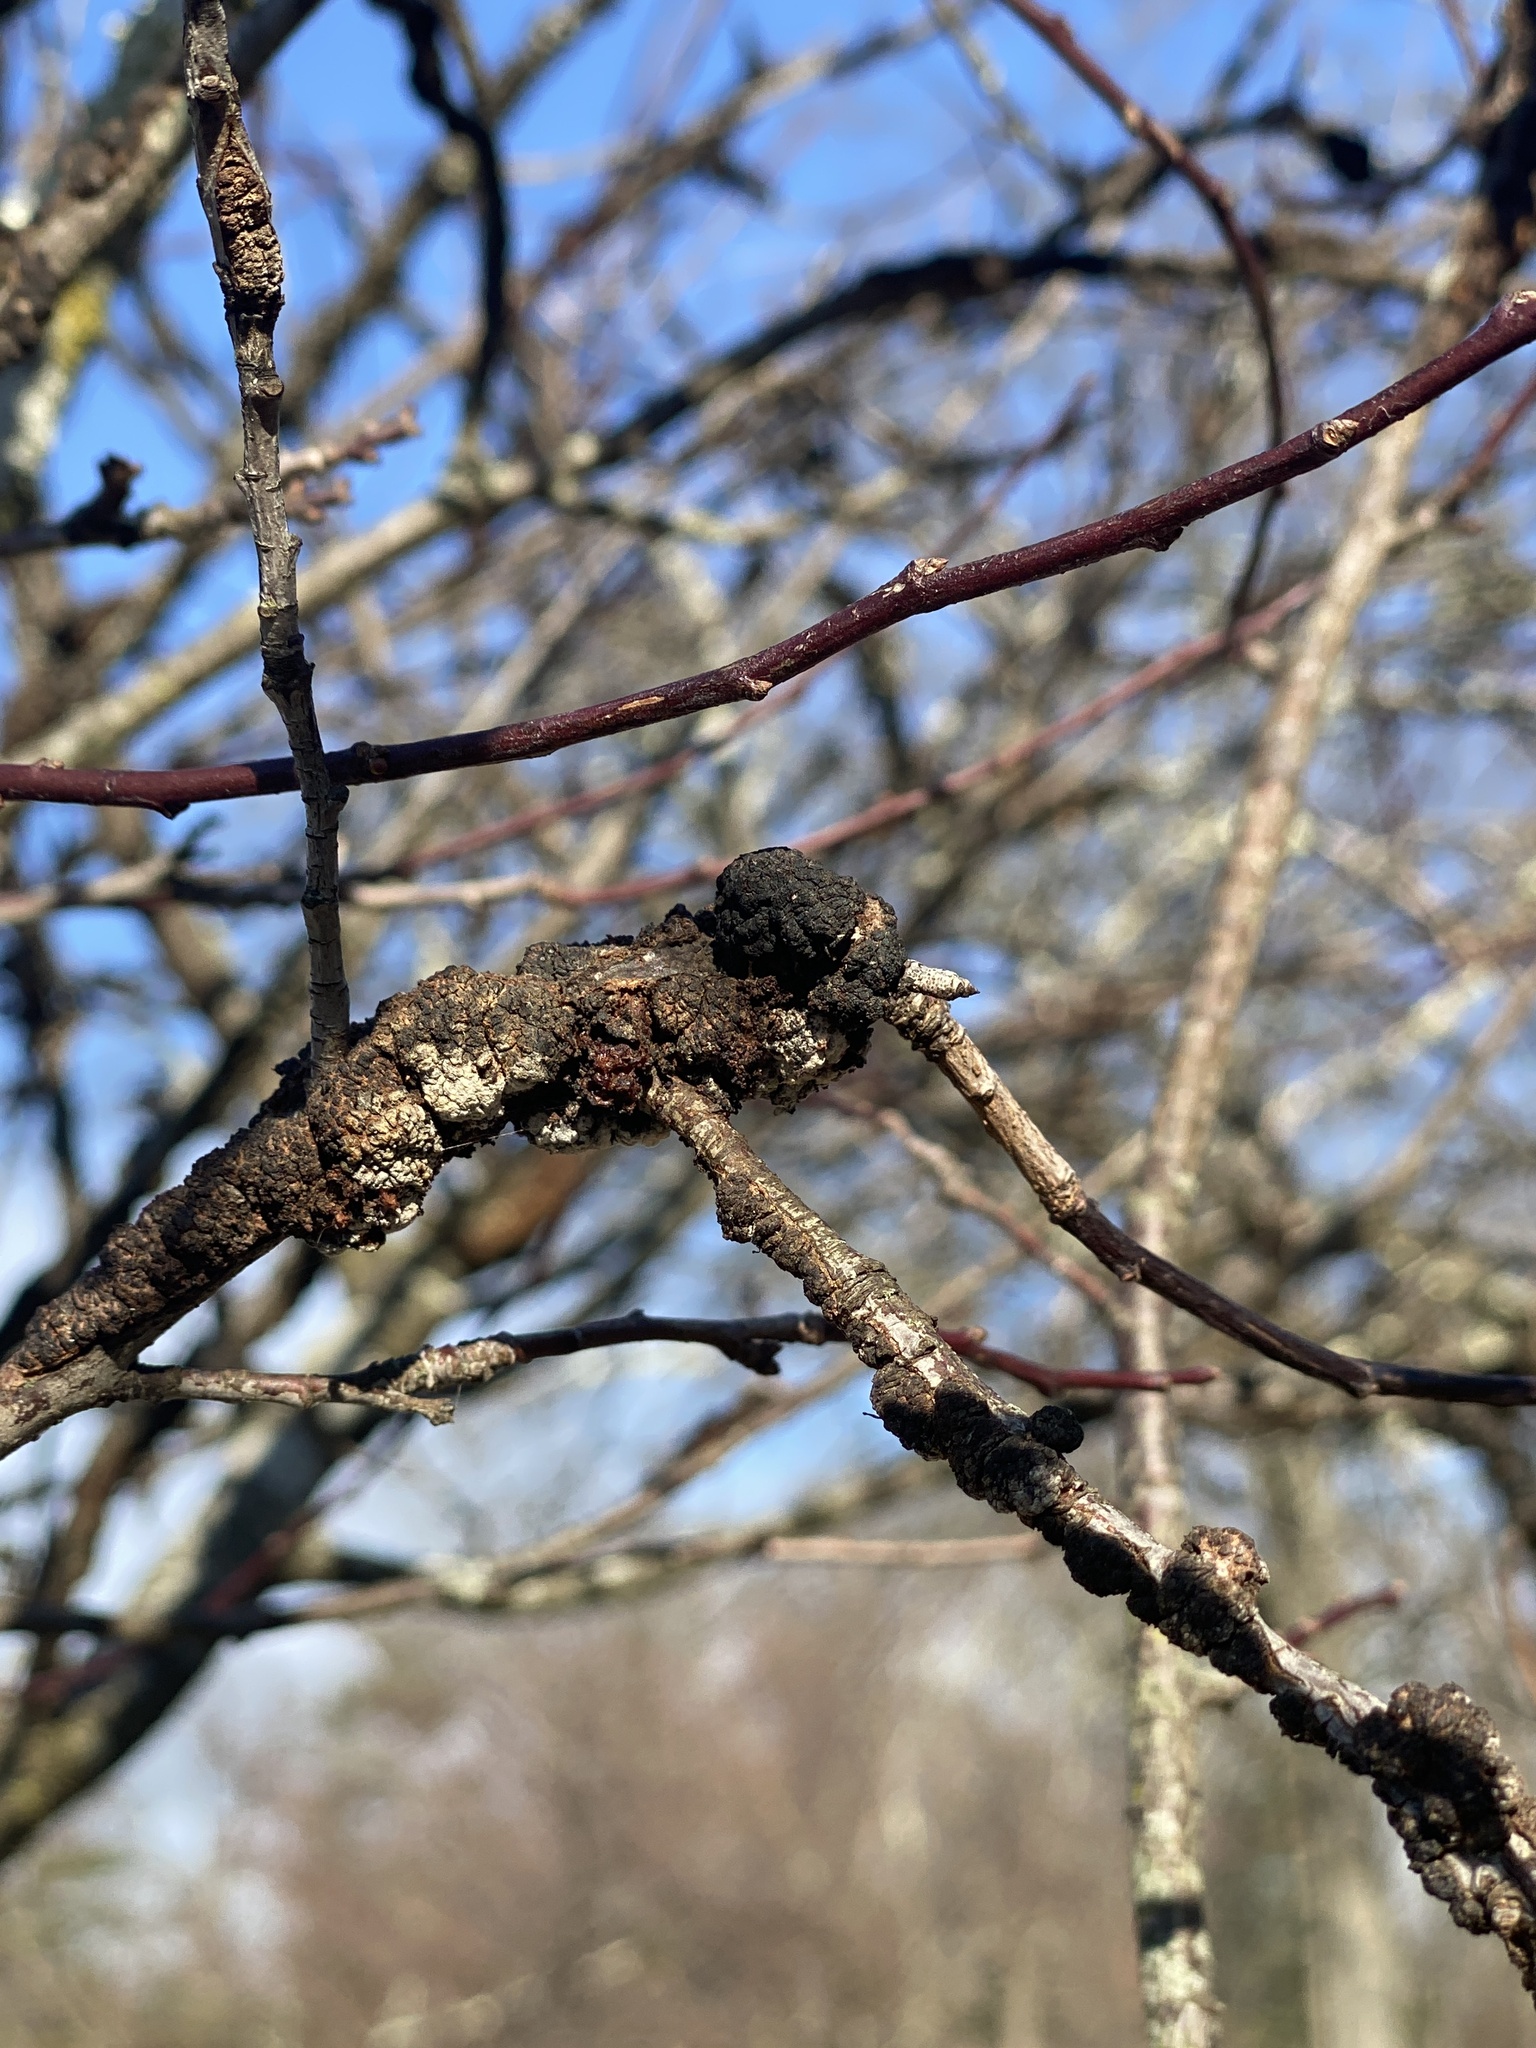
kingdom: Fungi
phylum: Ascomycota
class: Dothideomycetes
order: Venturiales
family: Venturiaceae
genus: Apiosporina
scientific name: Apiosporina morbosa
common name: Black knot
